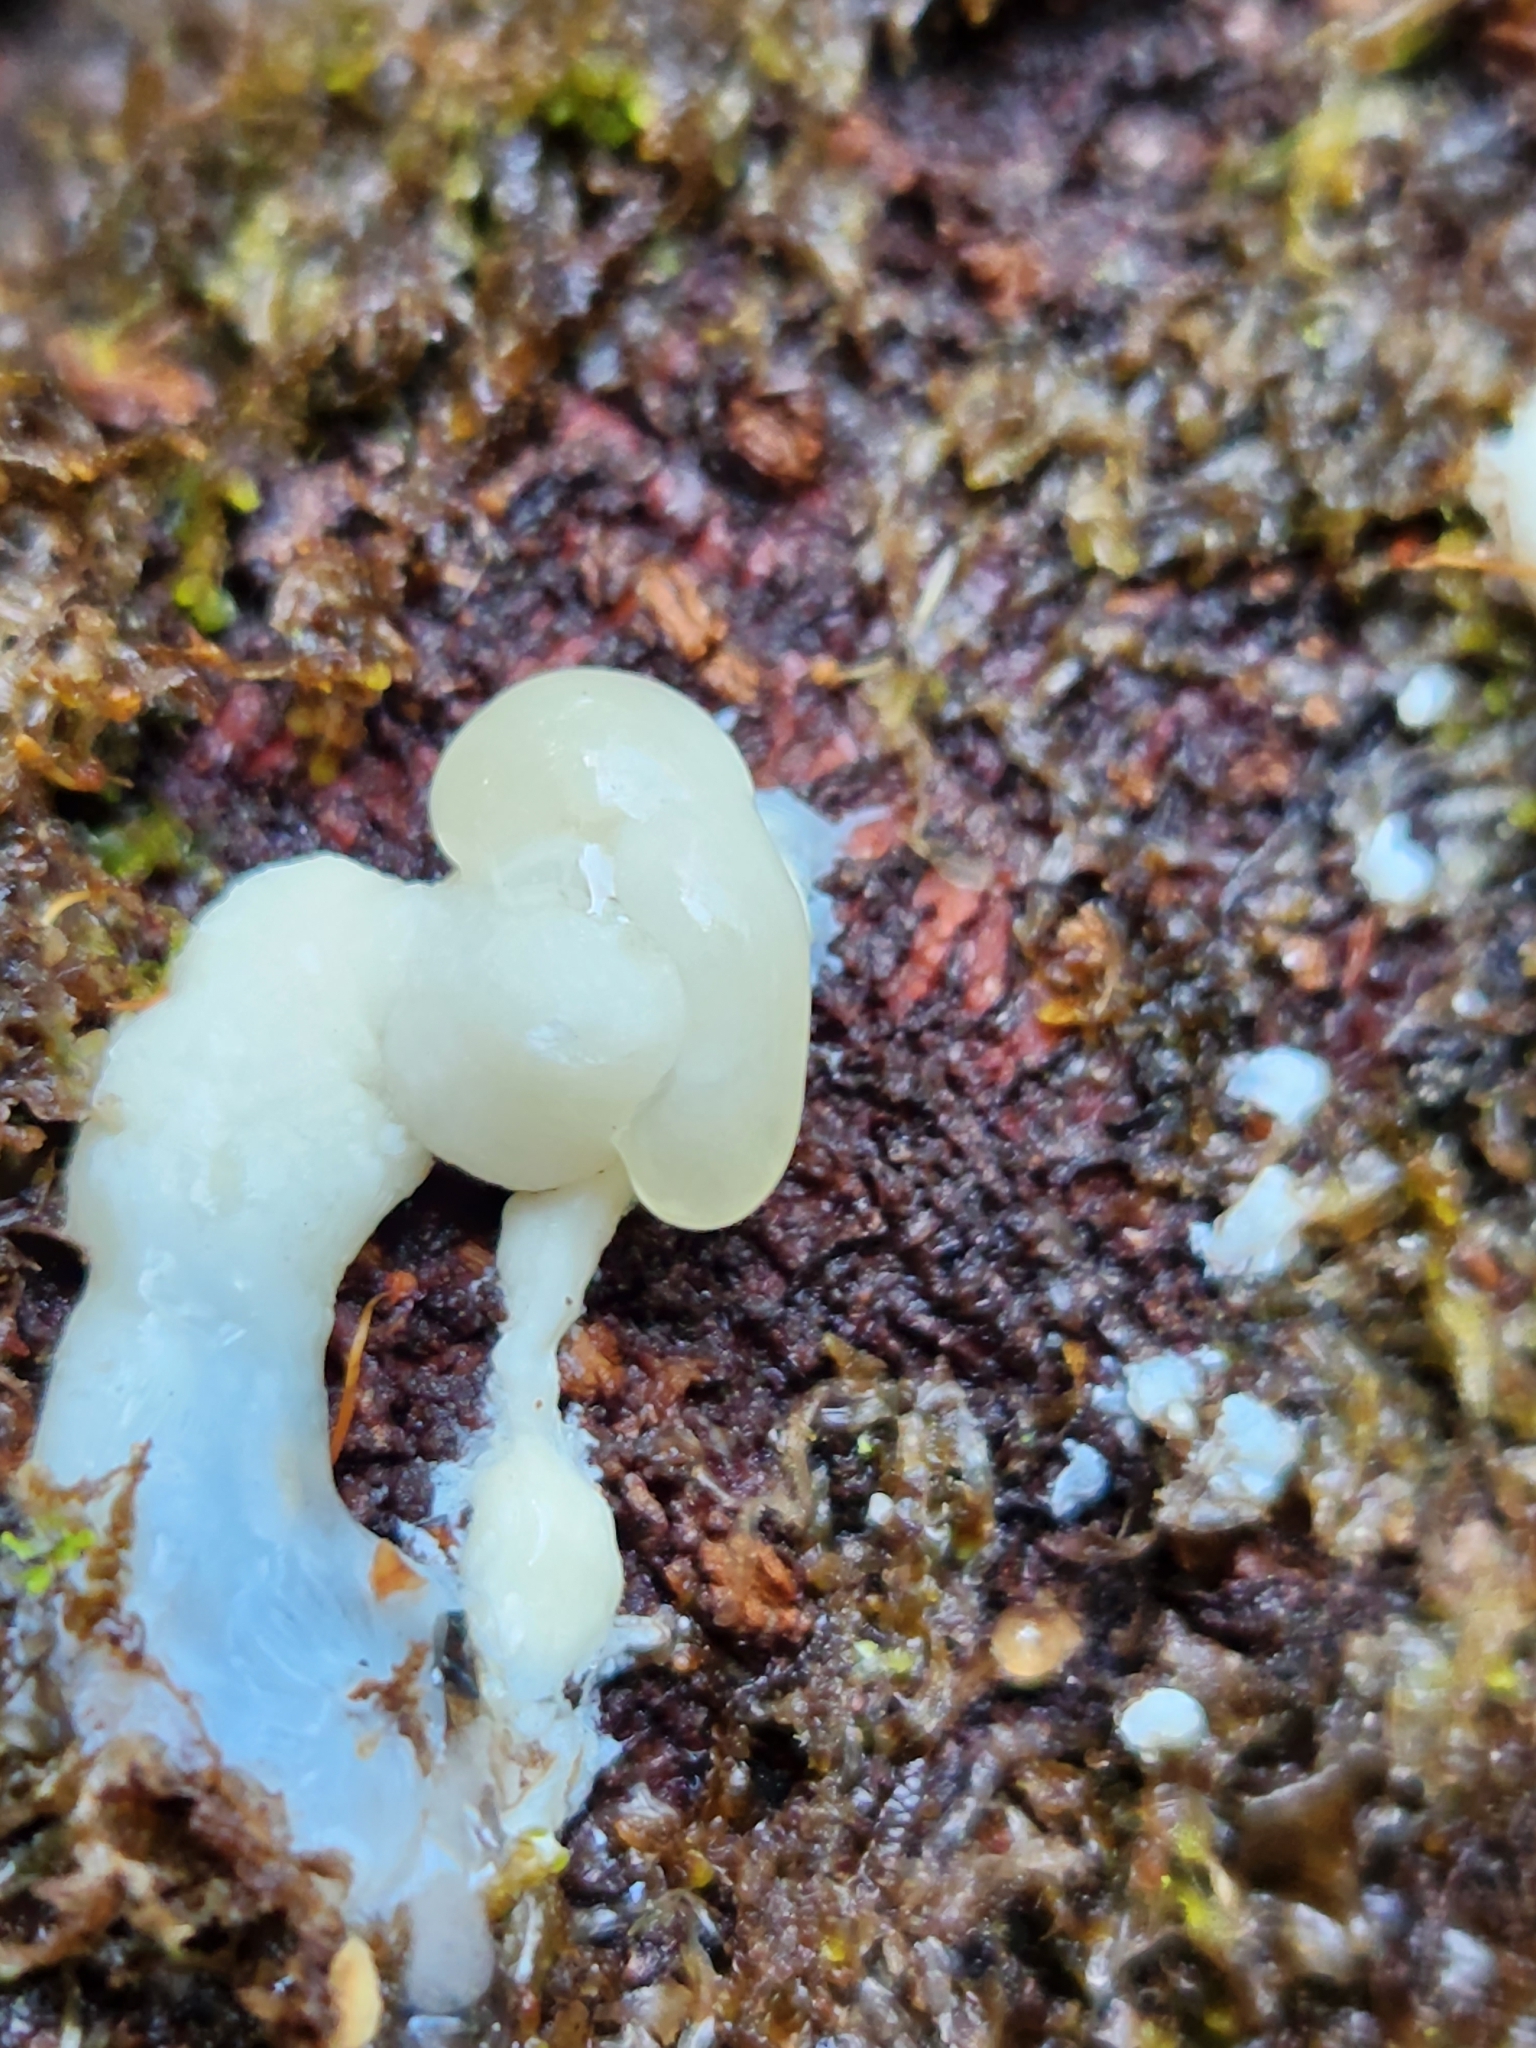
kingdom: Fungi
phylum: Basidiomycota
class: Tremellomycetes
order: Tremellales
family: Tremellaceae
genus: Tremella
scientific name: Tremella fuciformis
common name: Snow fungus
